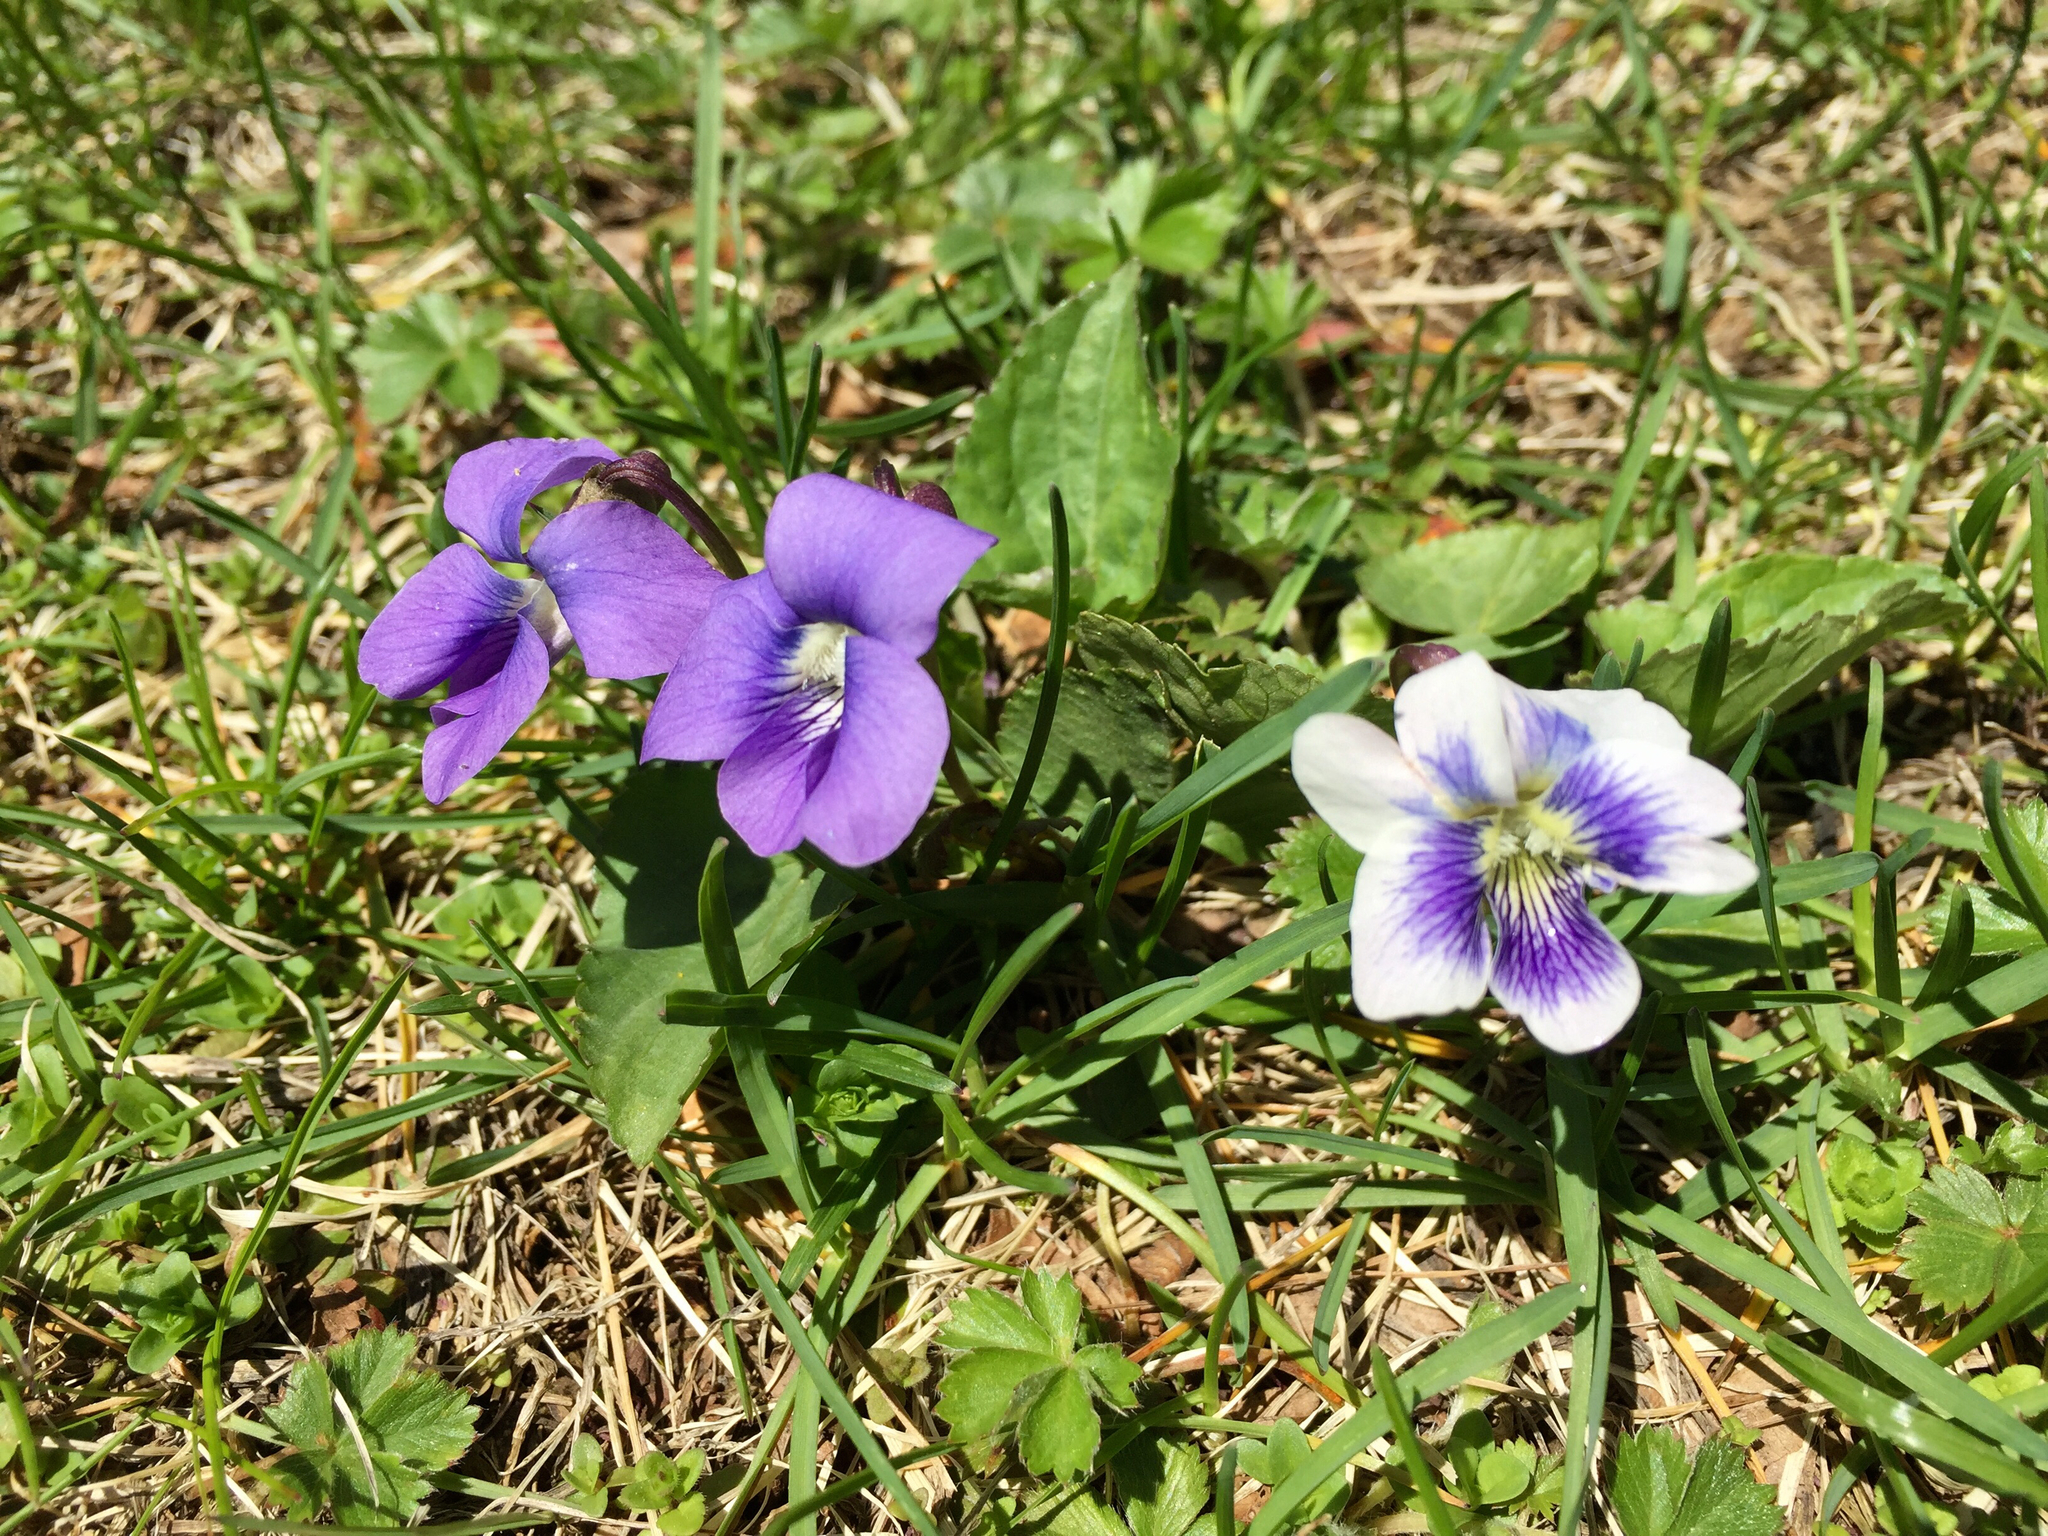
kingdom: Plantae
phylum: Tracheophyta
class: Magnoliopsida
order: Malpighiales
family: Violaceae
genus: Viola
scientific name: Viola sororia
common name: Dooryard violet
